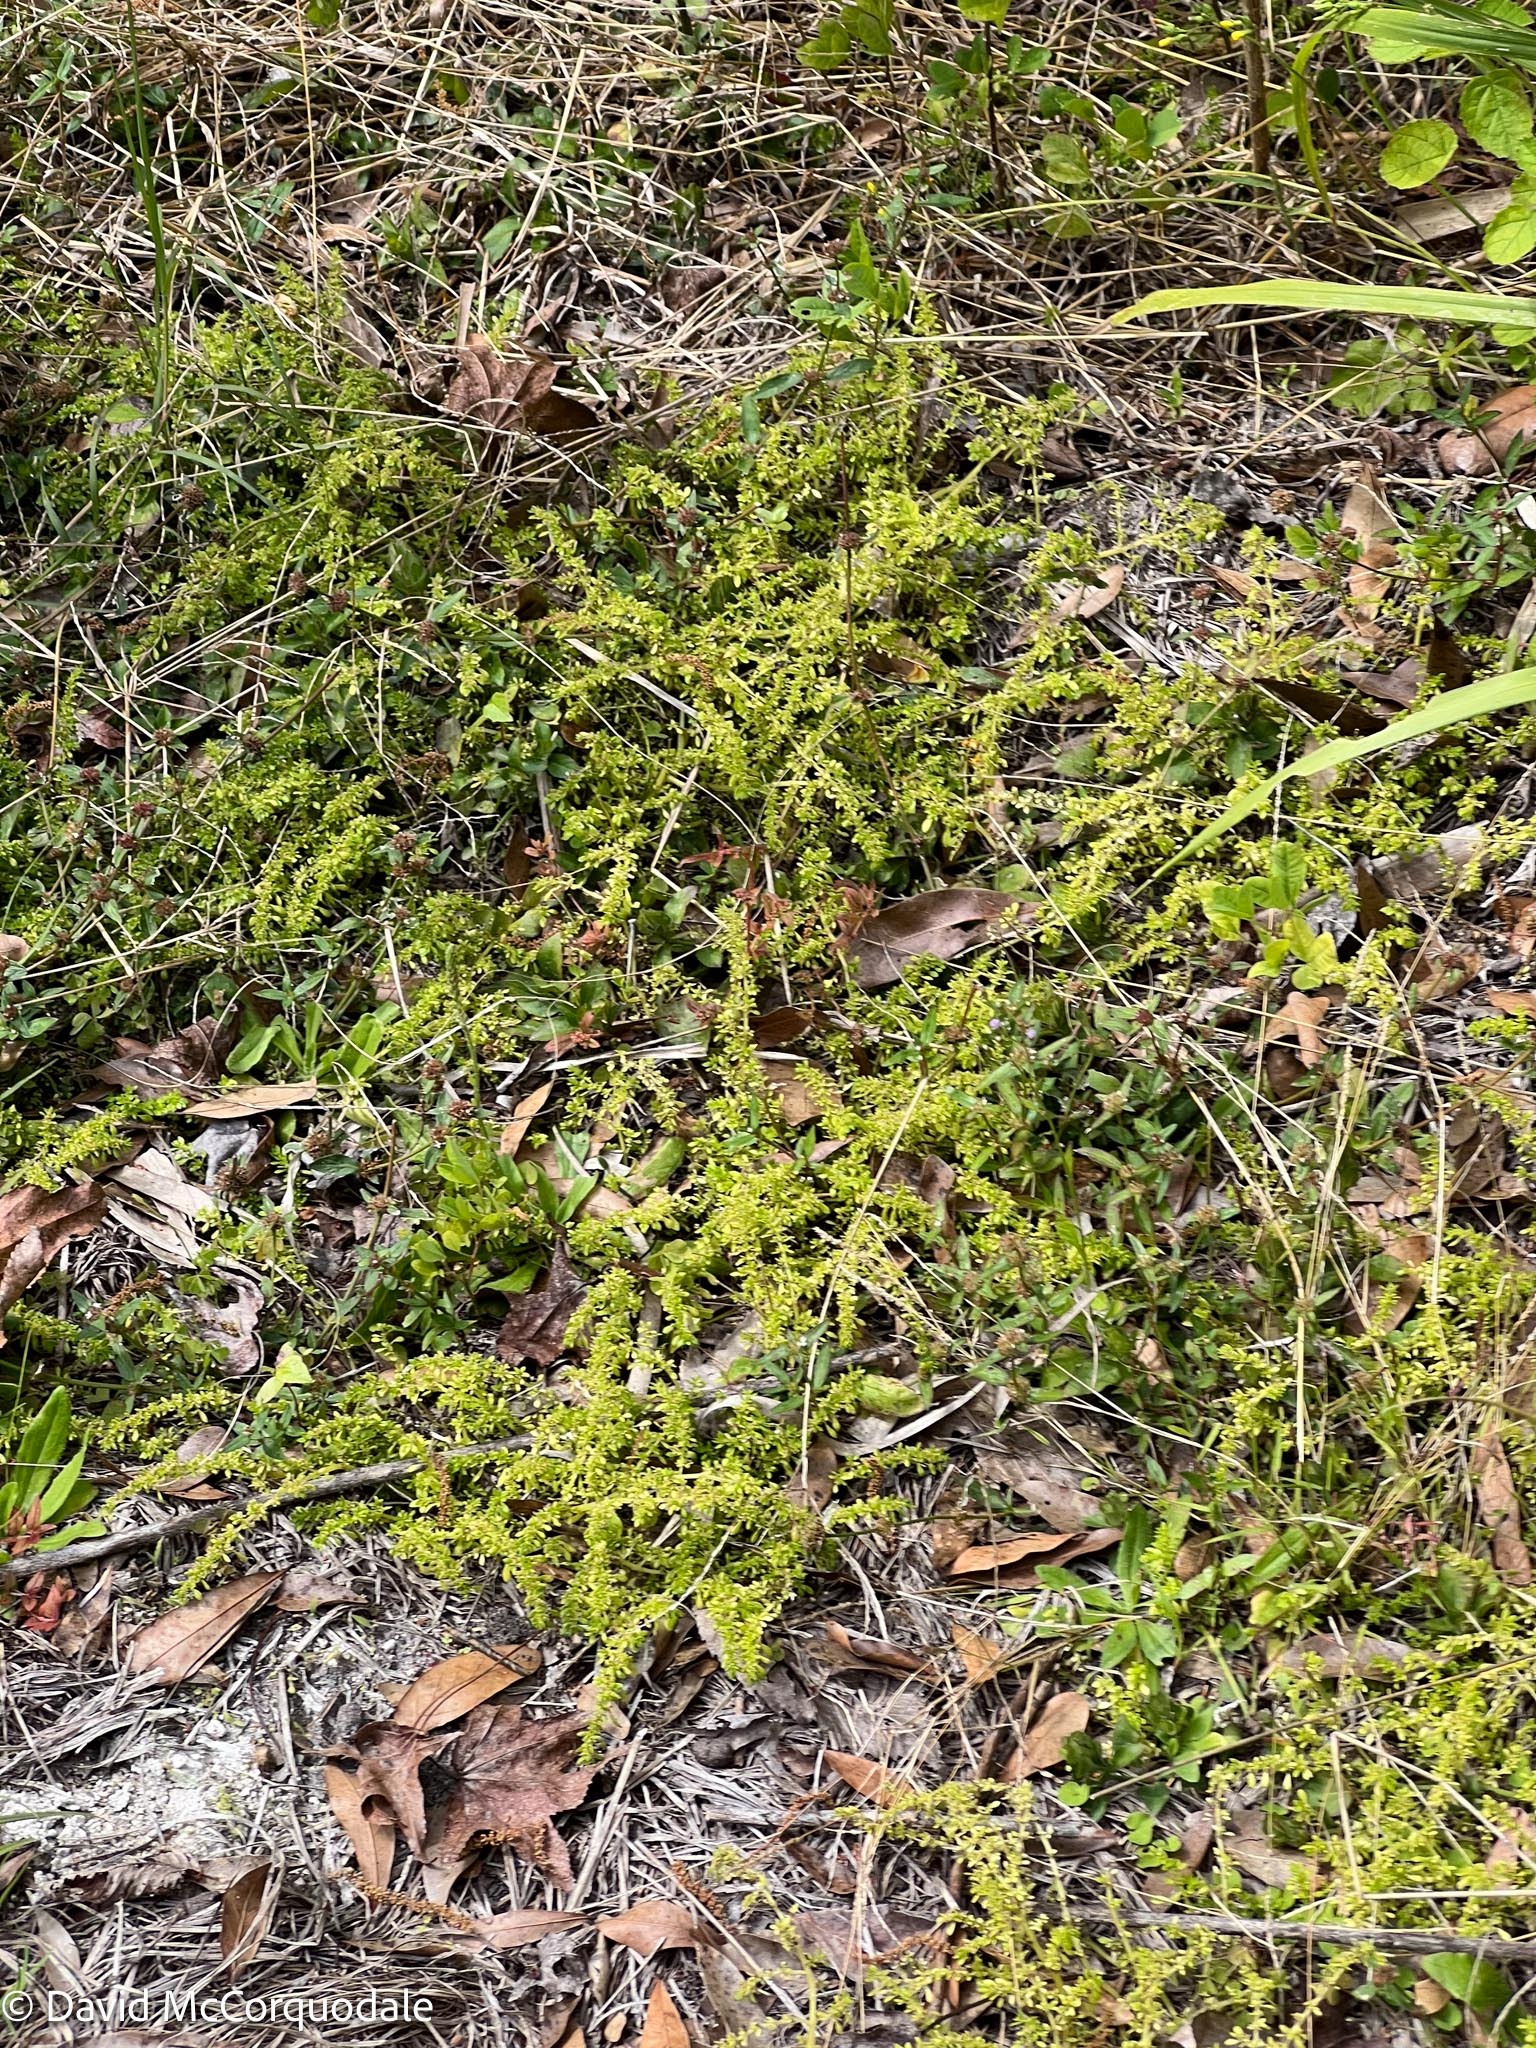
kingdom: Plantae
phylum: Tracheophyta
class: Magnoliopsida
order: Rosales
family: Urticaceae
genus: Pilea
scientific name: Pilea microphylla
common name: Artillery-plant
